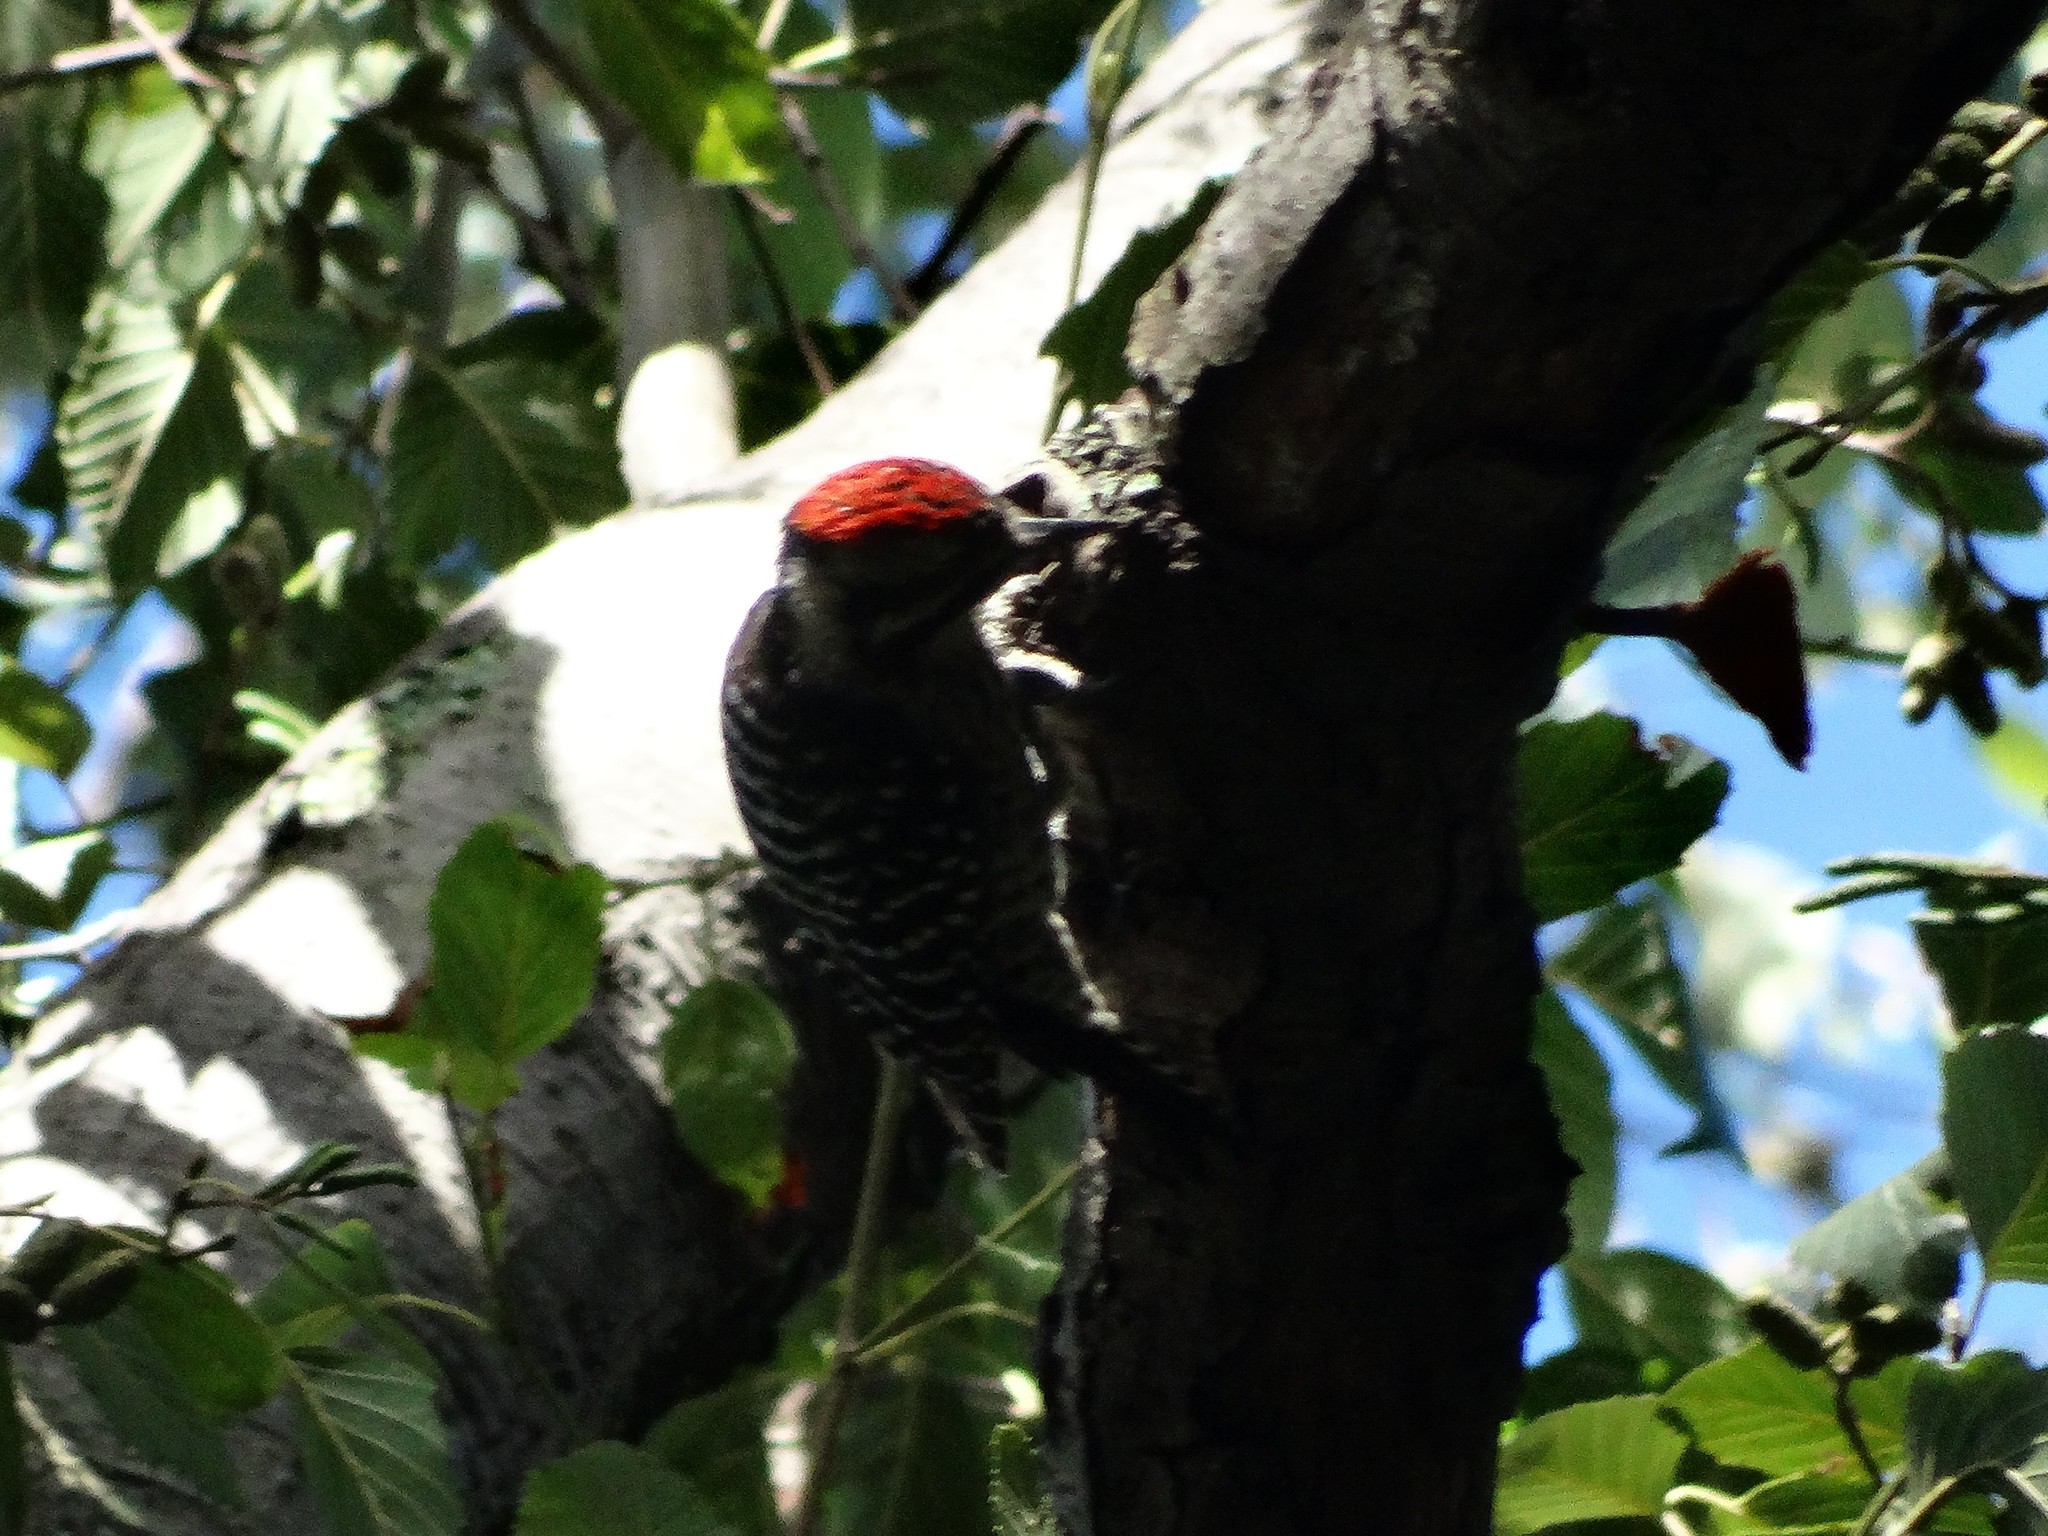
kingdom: Animalia
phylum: Chordata
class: Aves
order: Piciformes
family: Picidae
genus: Dryobates
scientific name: Dryobates scalaris
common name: Ladder-backed woodpecker
